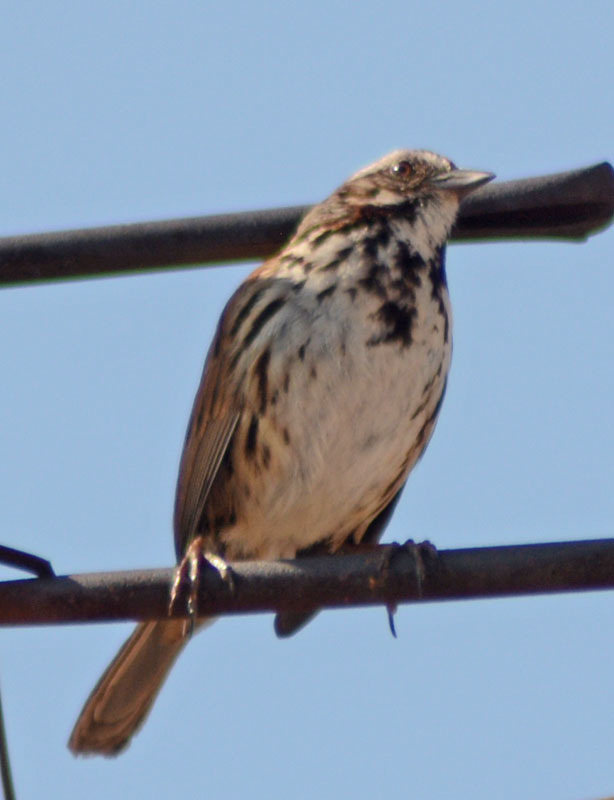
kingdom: Animalia
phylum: Chordata
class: Aves
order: Passeriformes
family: Passerellidae
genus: Melospiza
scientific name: Melospiza melodia
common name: Song sparrow
